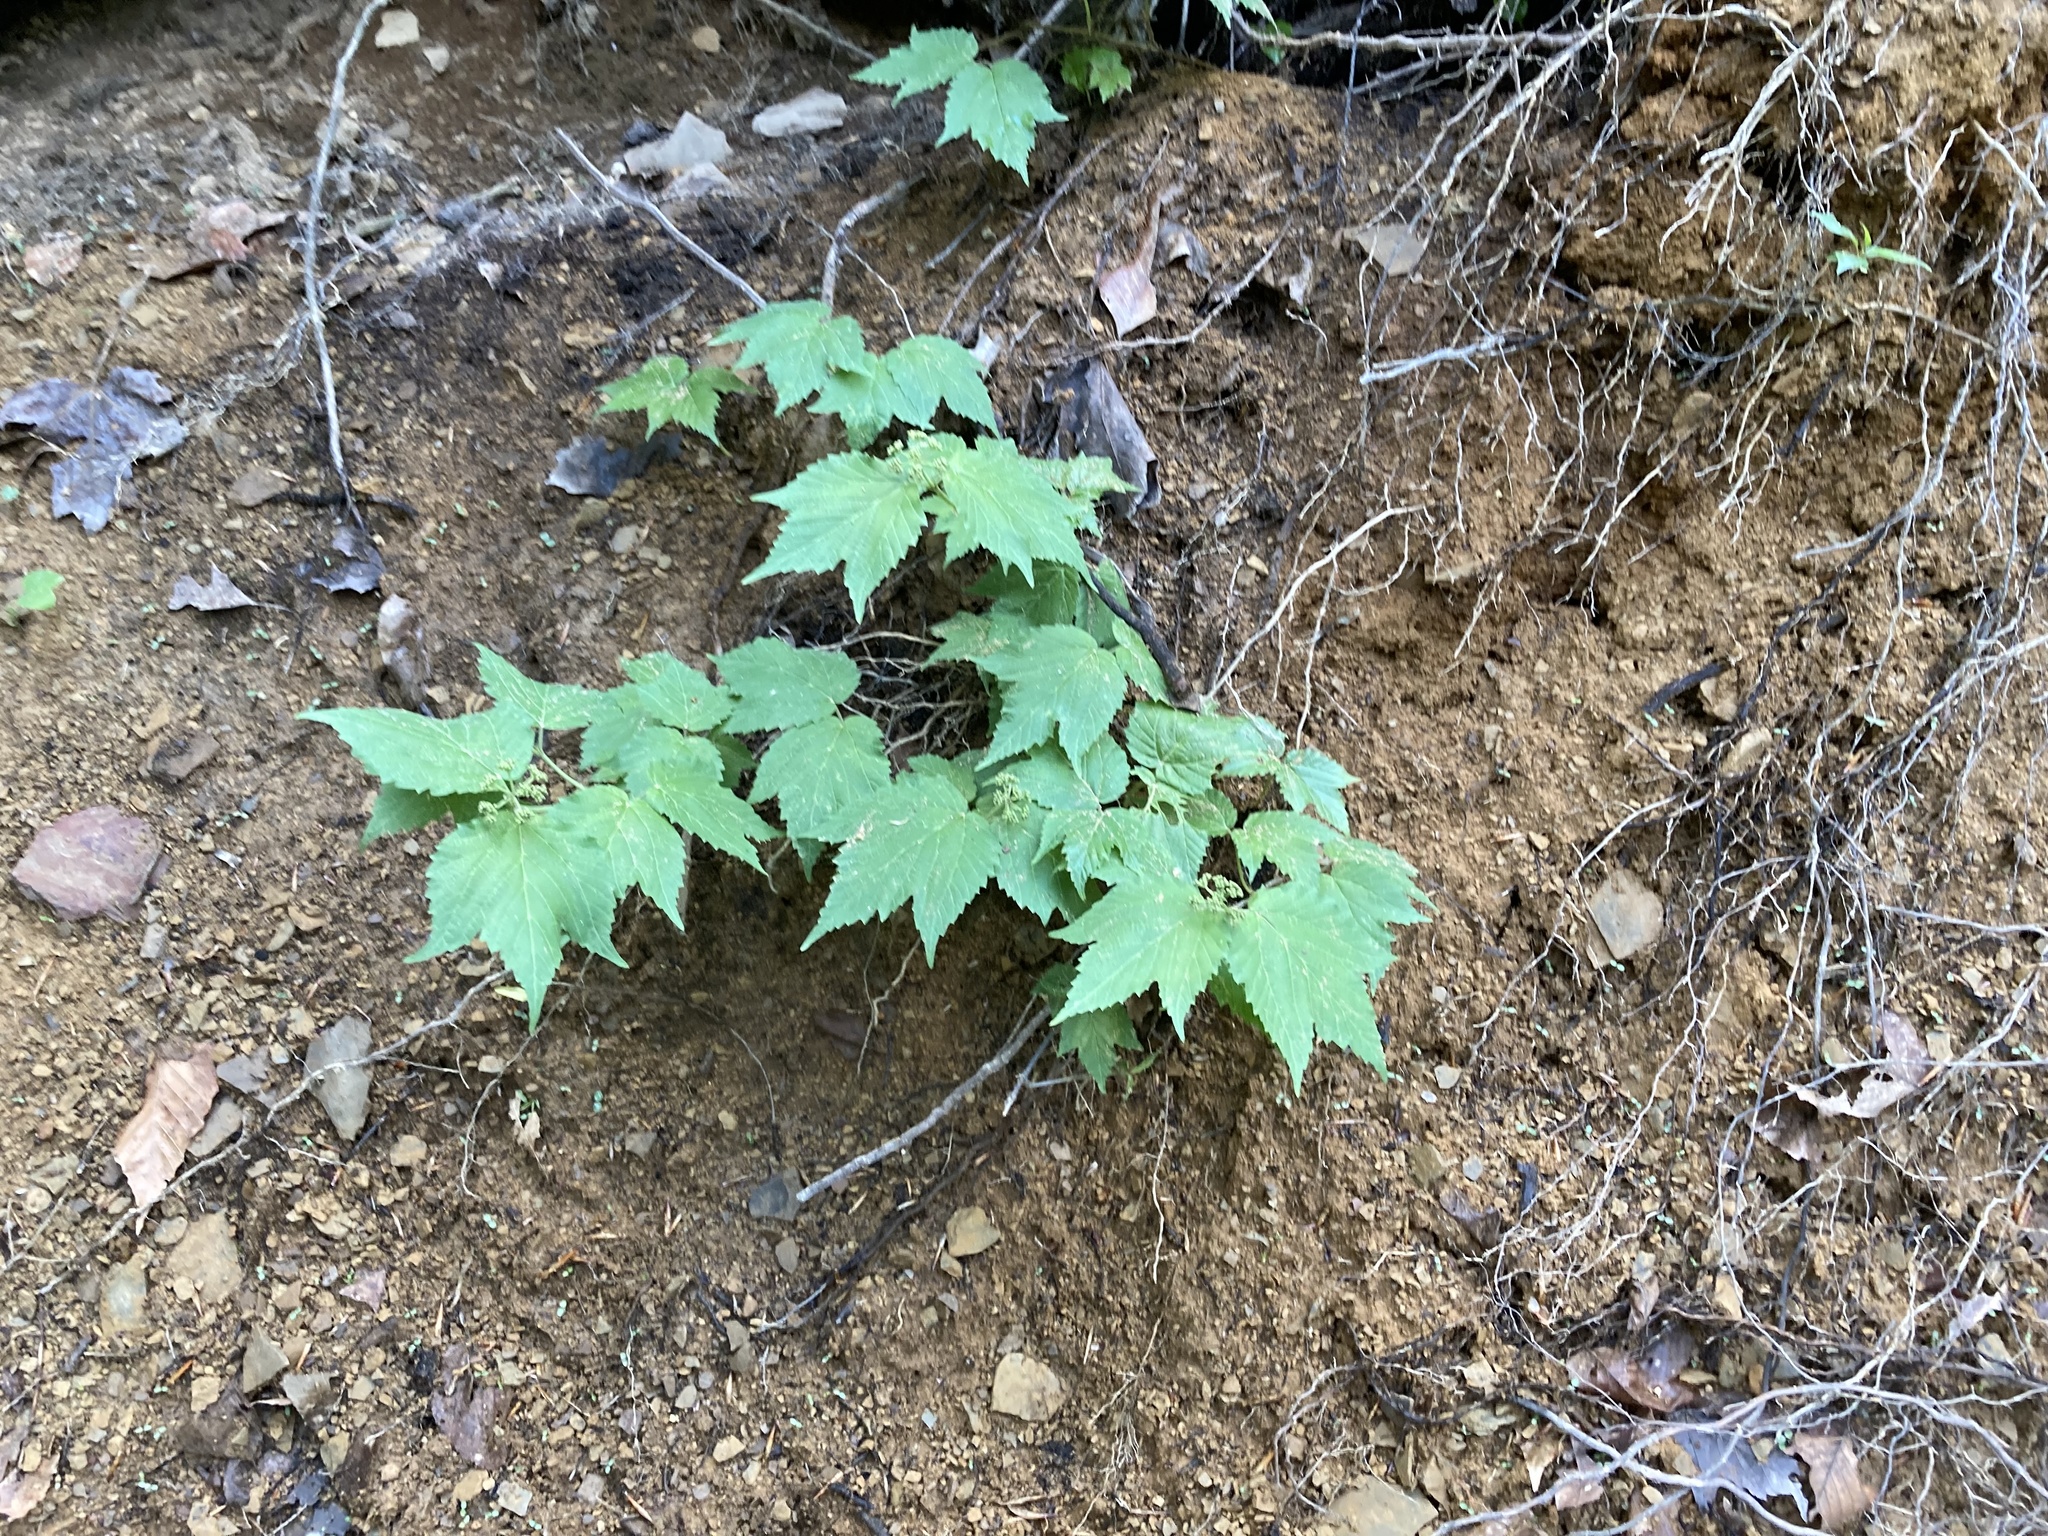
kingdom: Plantae
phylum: Tracheophyta
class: Magnoliopsida
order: Dipsacales
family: Viburnaceae
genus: Viburnum
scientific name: Viburnum acerifolium
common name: Dockmackie
